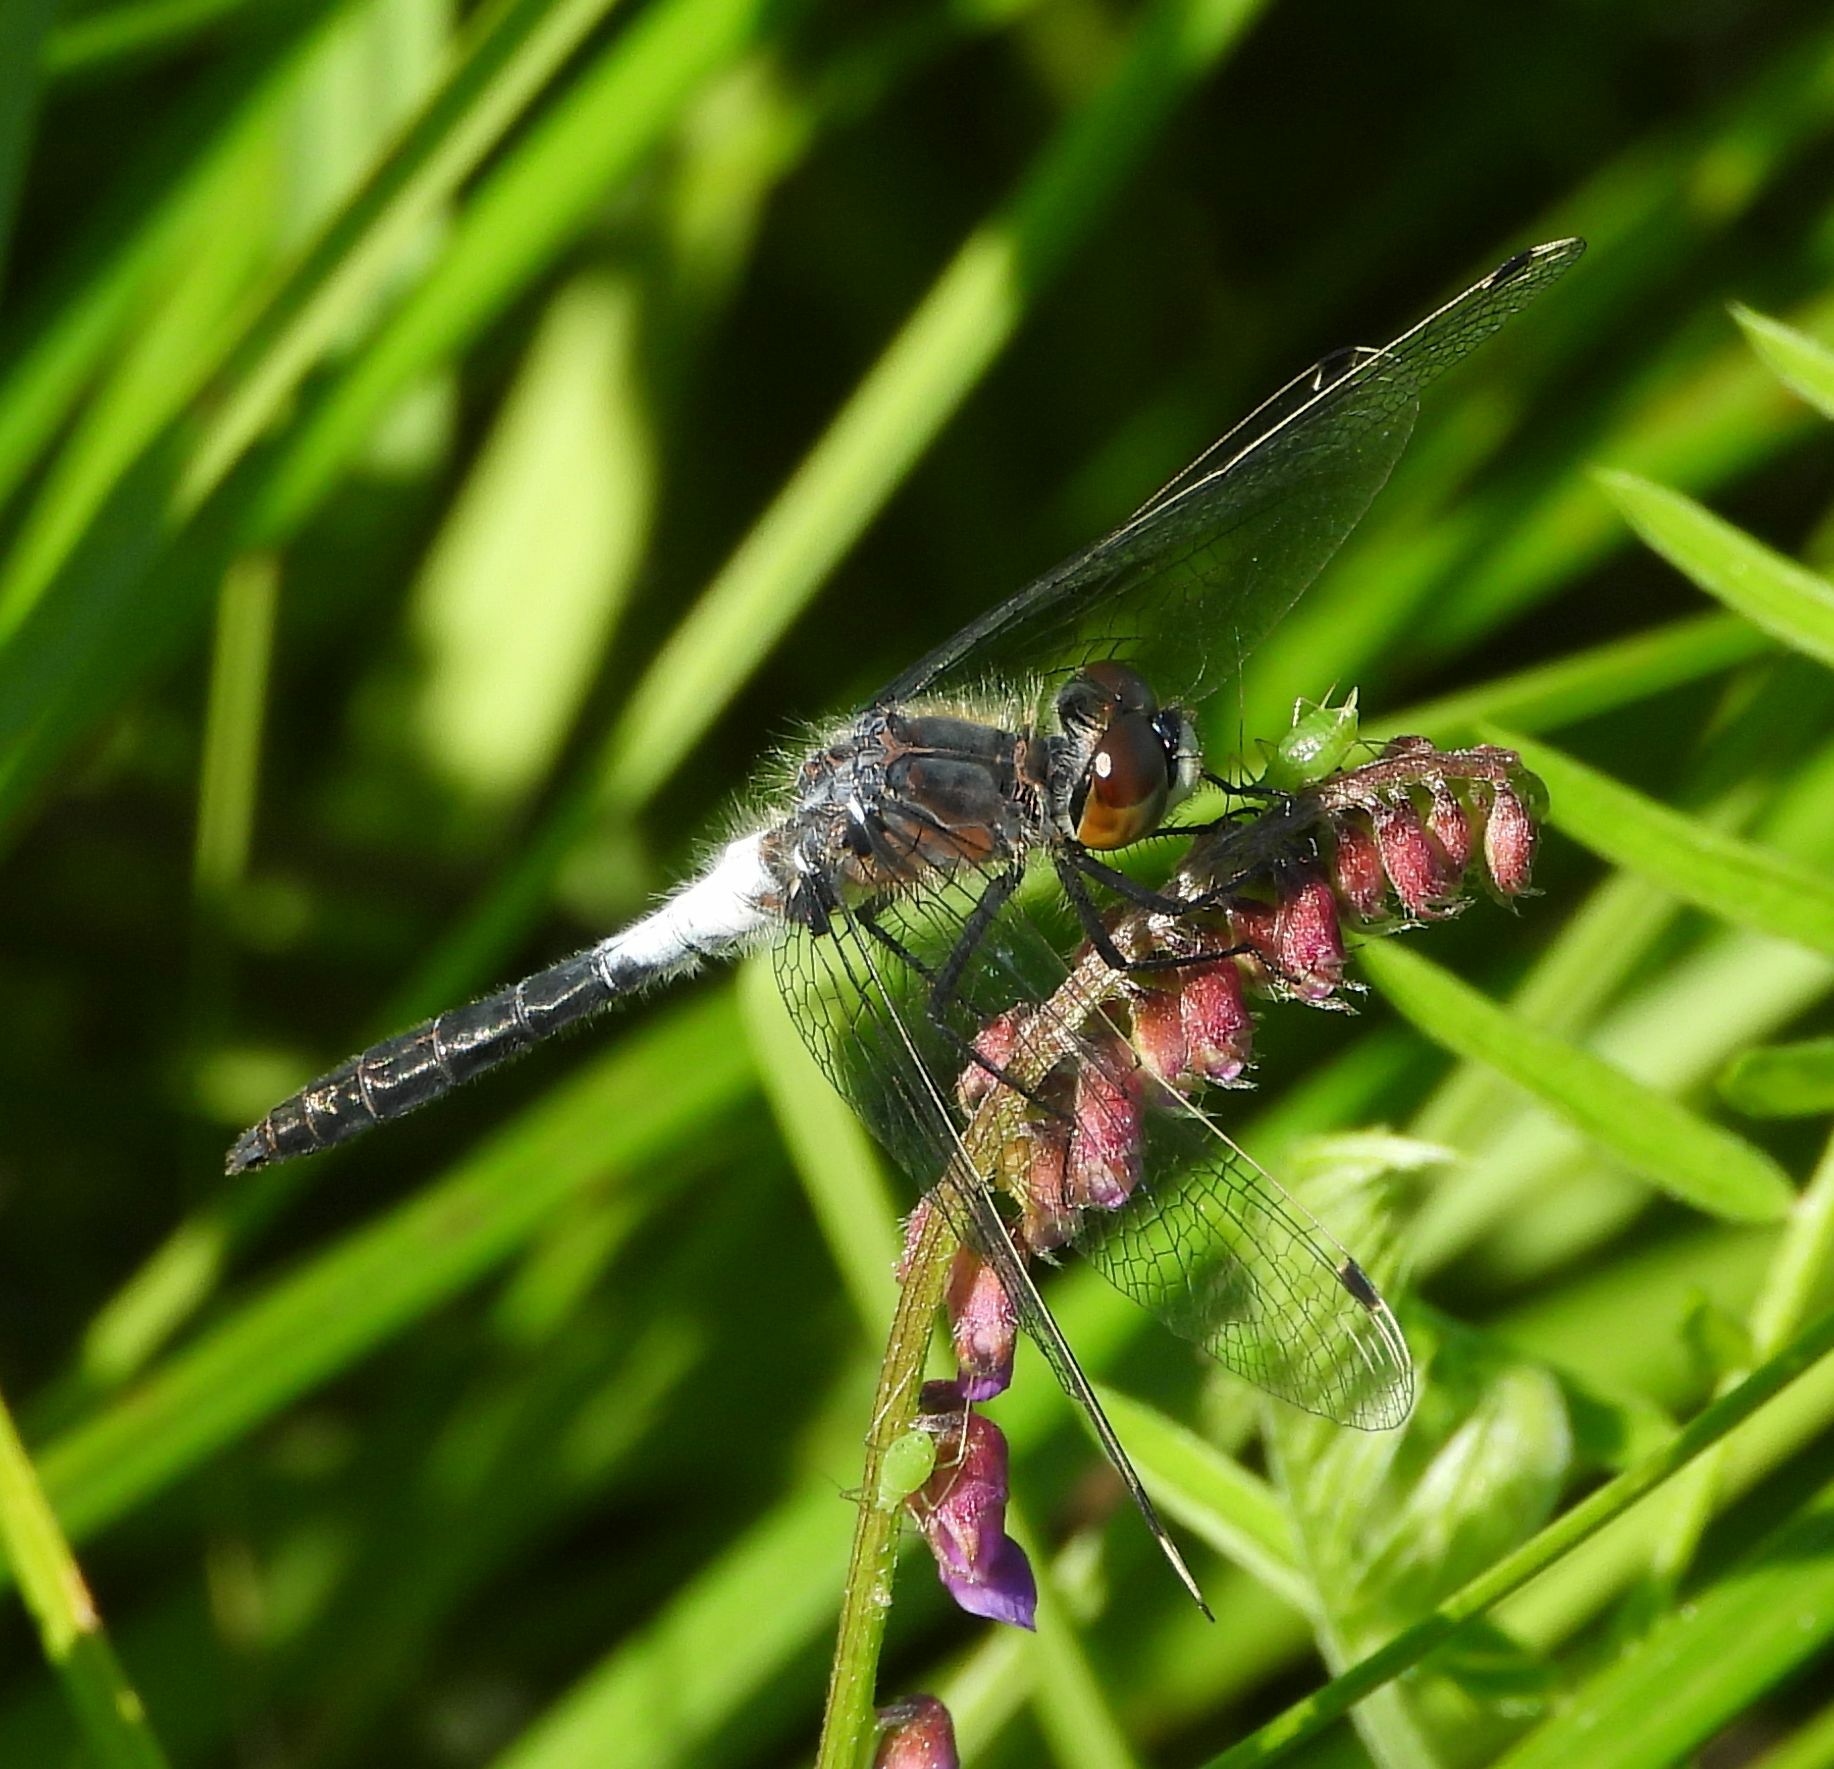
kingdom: Animalia
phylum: Arthropoda
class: Insecta
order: Odonata
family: Libellulidae
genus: Leucorrhinia
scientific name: Leucorrhinia frigida
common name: Frosted whiteface
